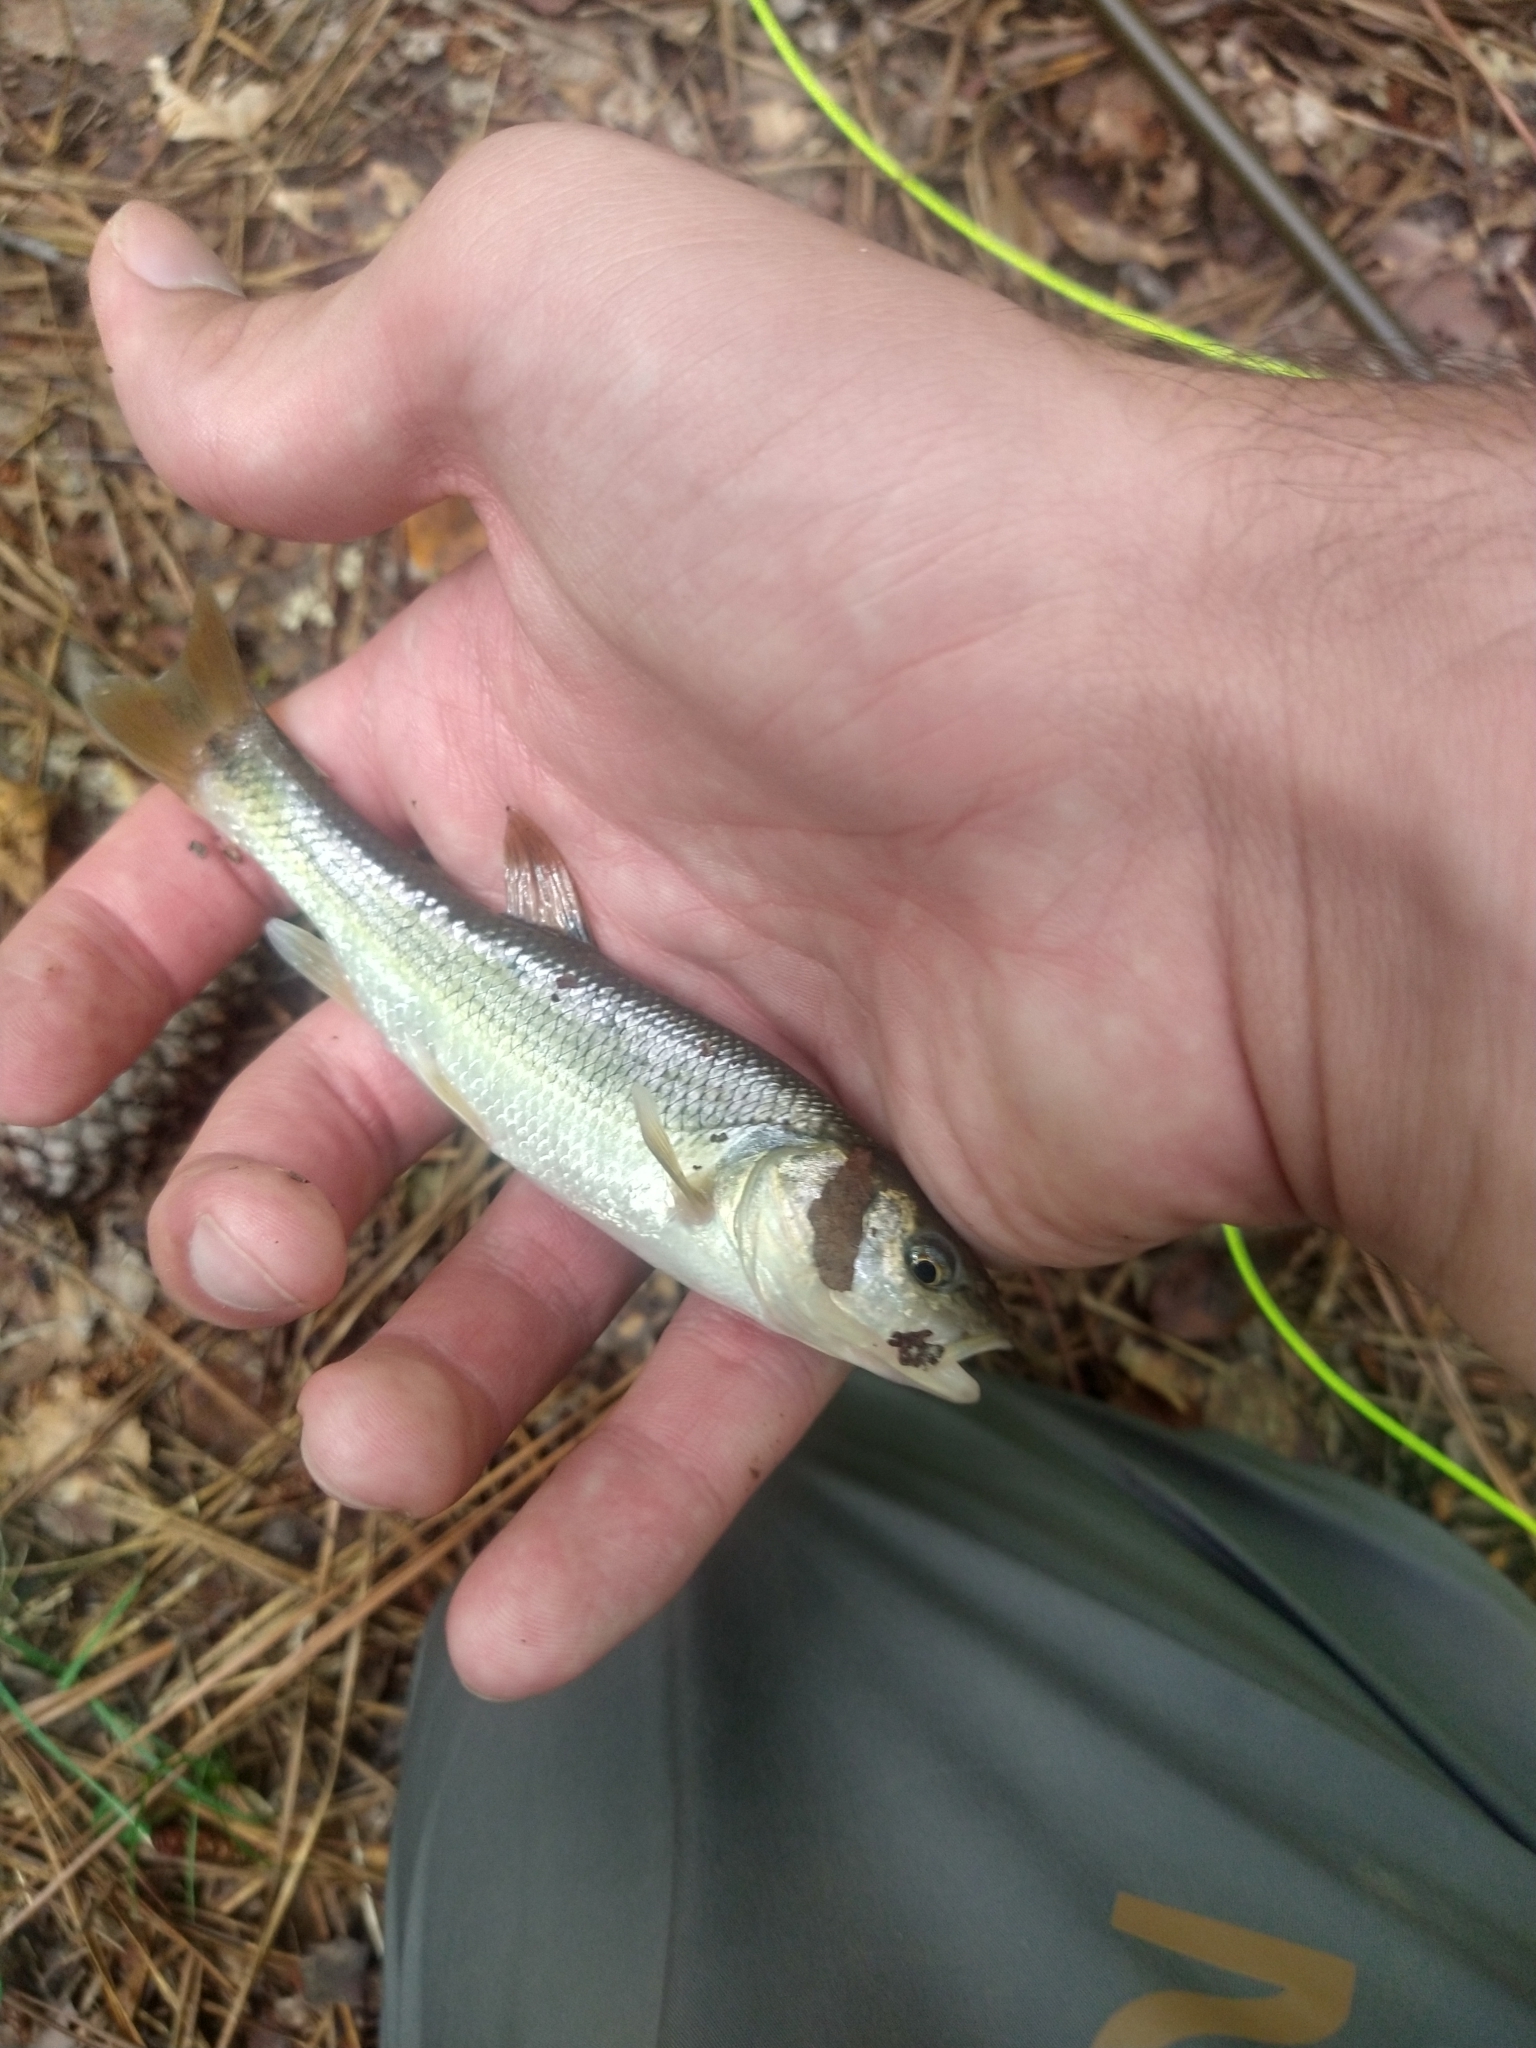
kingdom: Animalia
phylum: Chordata
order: Cypriniformes
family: Cyprinidae
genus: Semotilus
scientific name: Semotilus atromaculatus
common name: Creek chub
